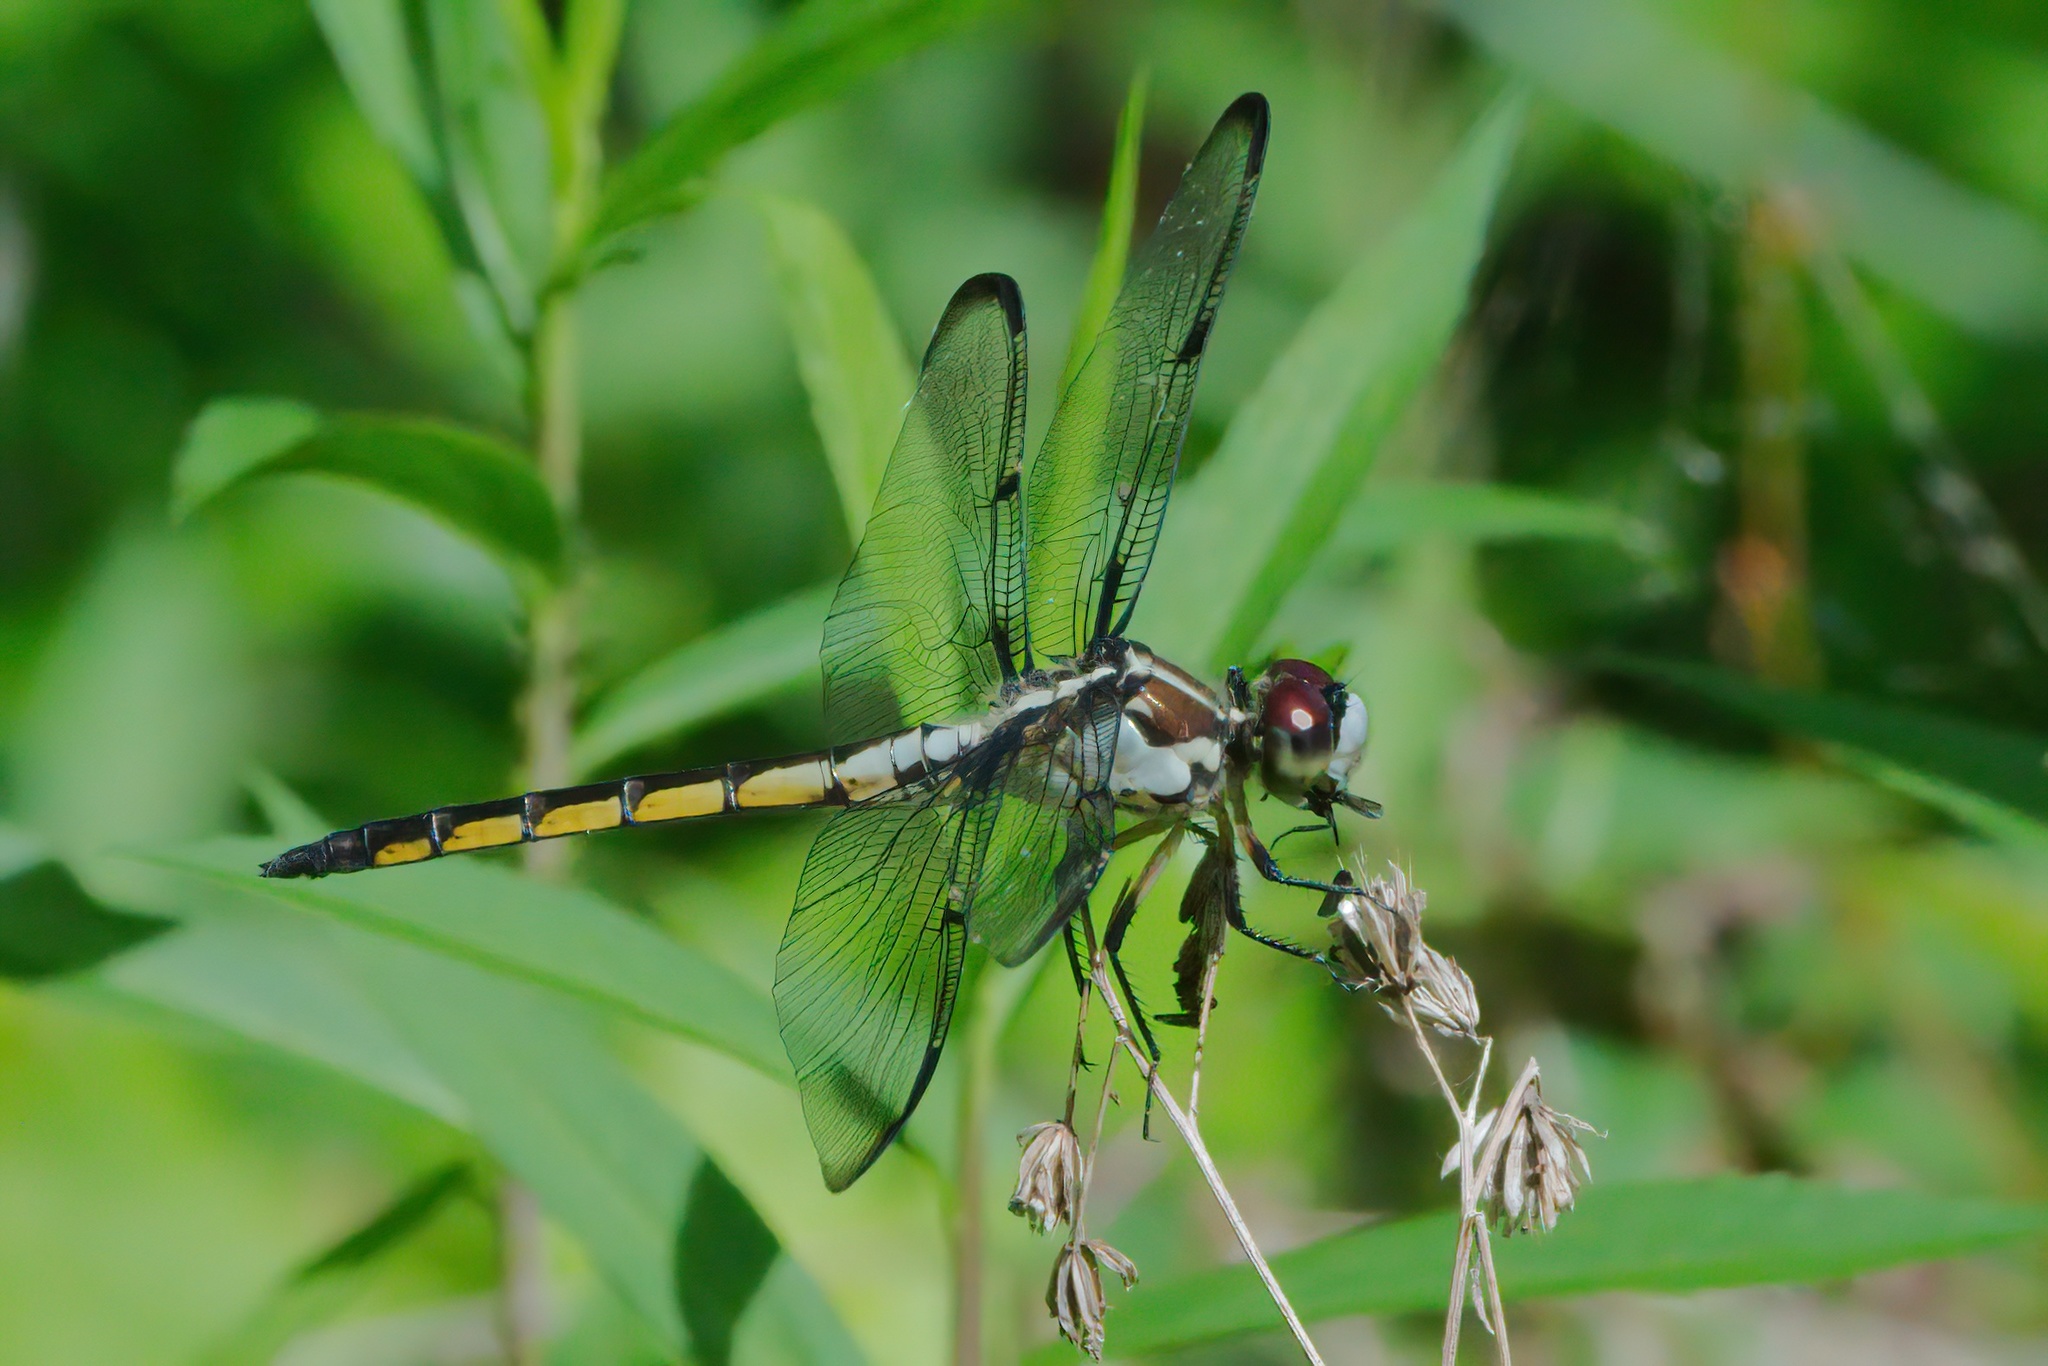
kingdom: Animalia
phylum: Arthropoda
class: Insecta
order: Odonata
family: Libellulidae
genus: Libellula
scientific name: Libellula vibrans
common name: Great blue skimmer
